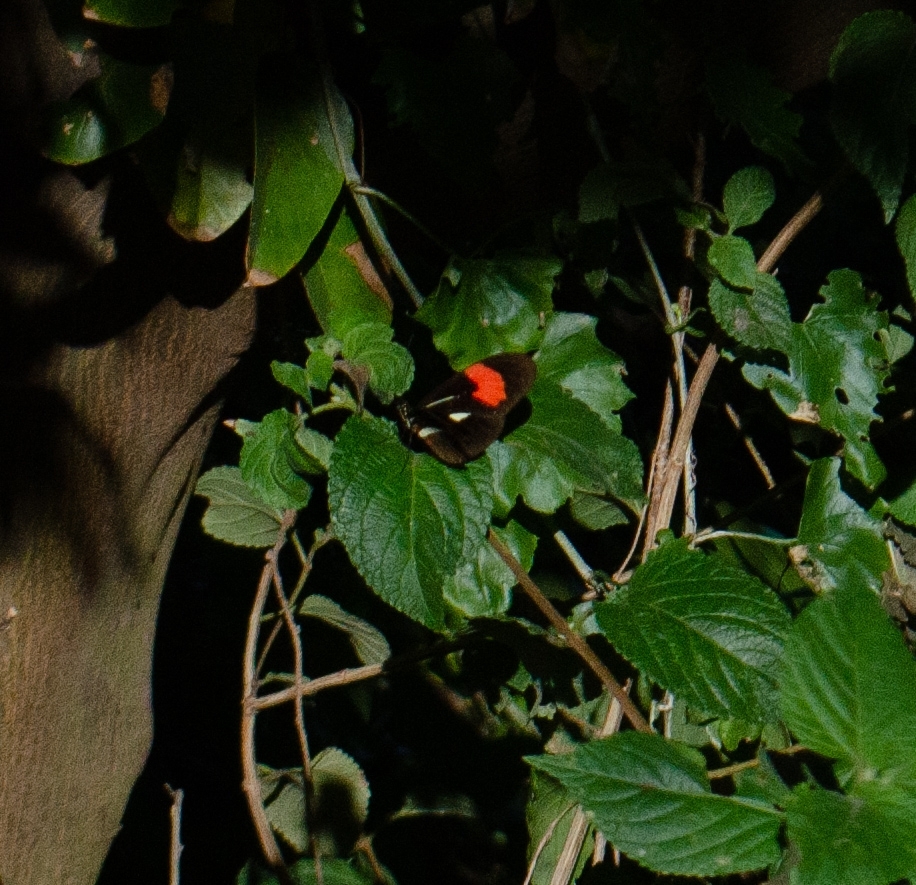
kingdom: Animalia
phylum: Arthropoda
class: Insecta
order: Lepidoptera
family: Nymphalidae
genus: Heliconius
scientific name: Heliconius erato
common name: Common patch longwing
